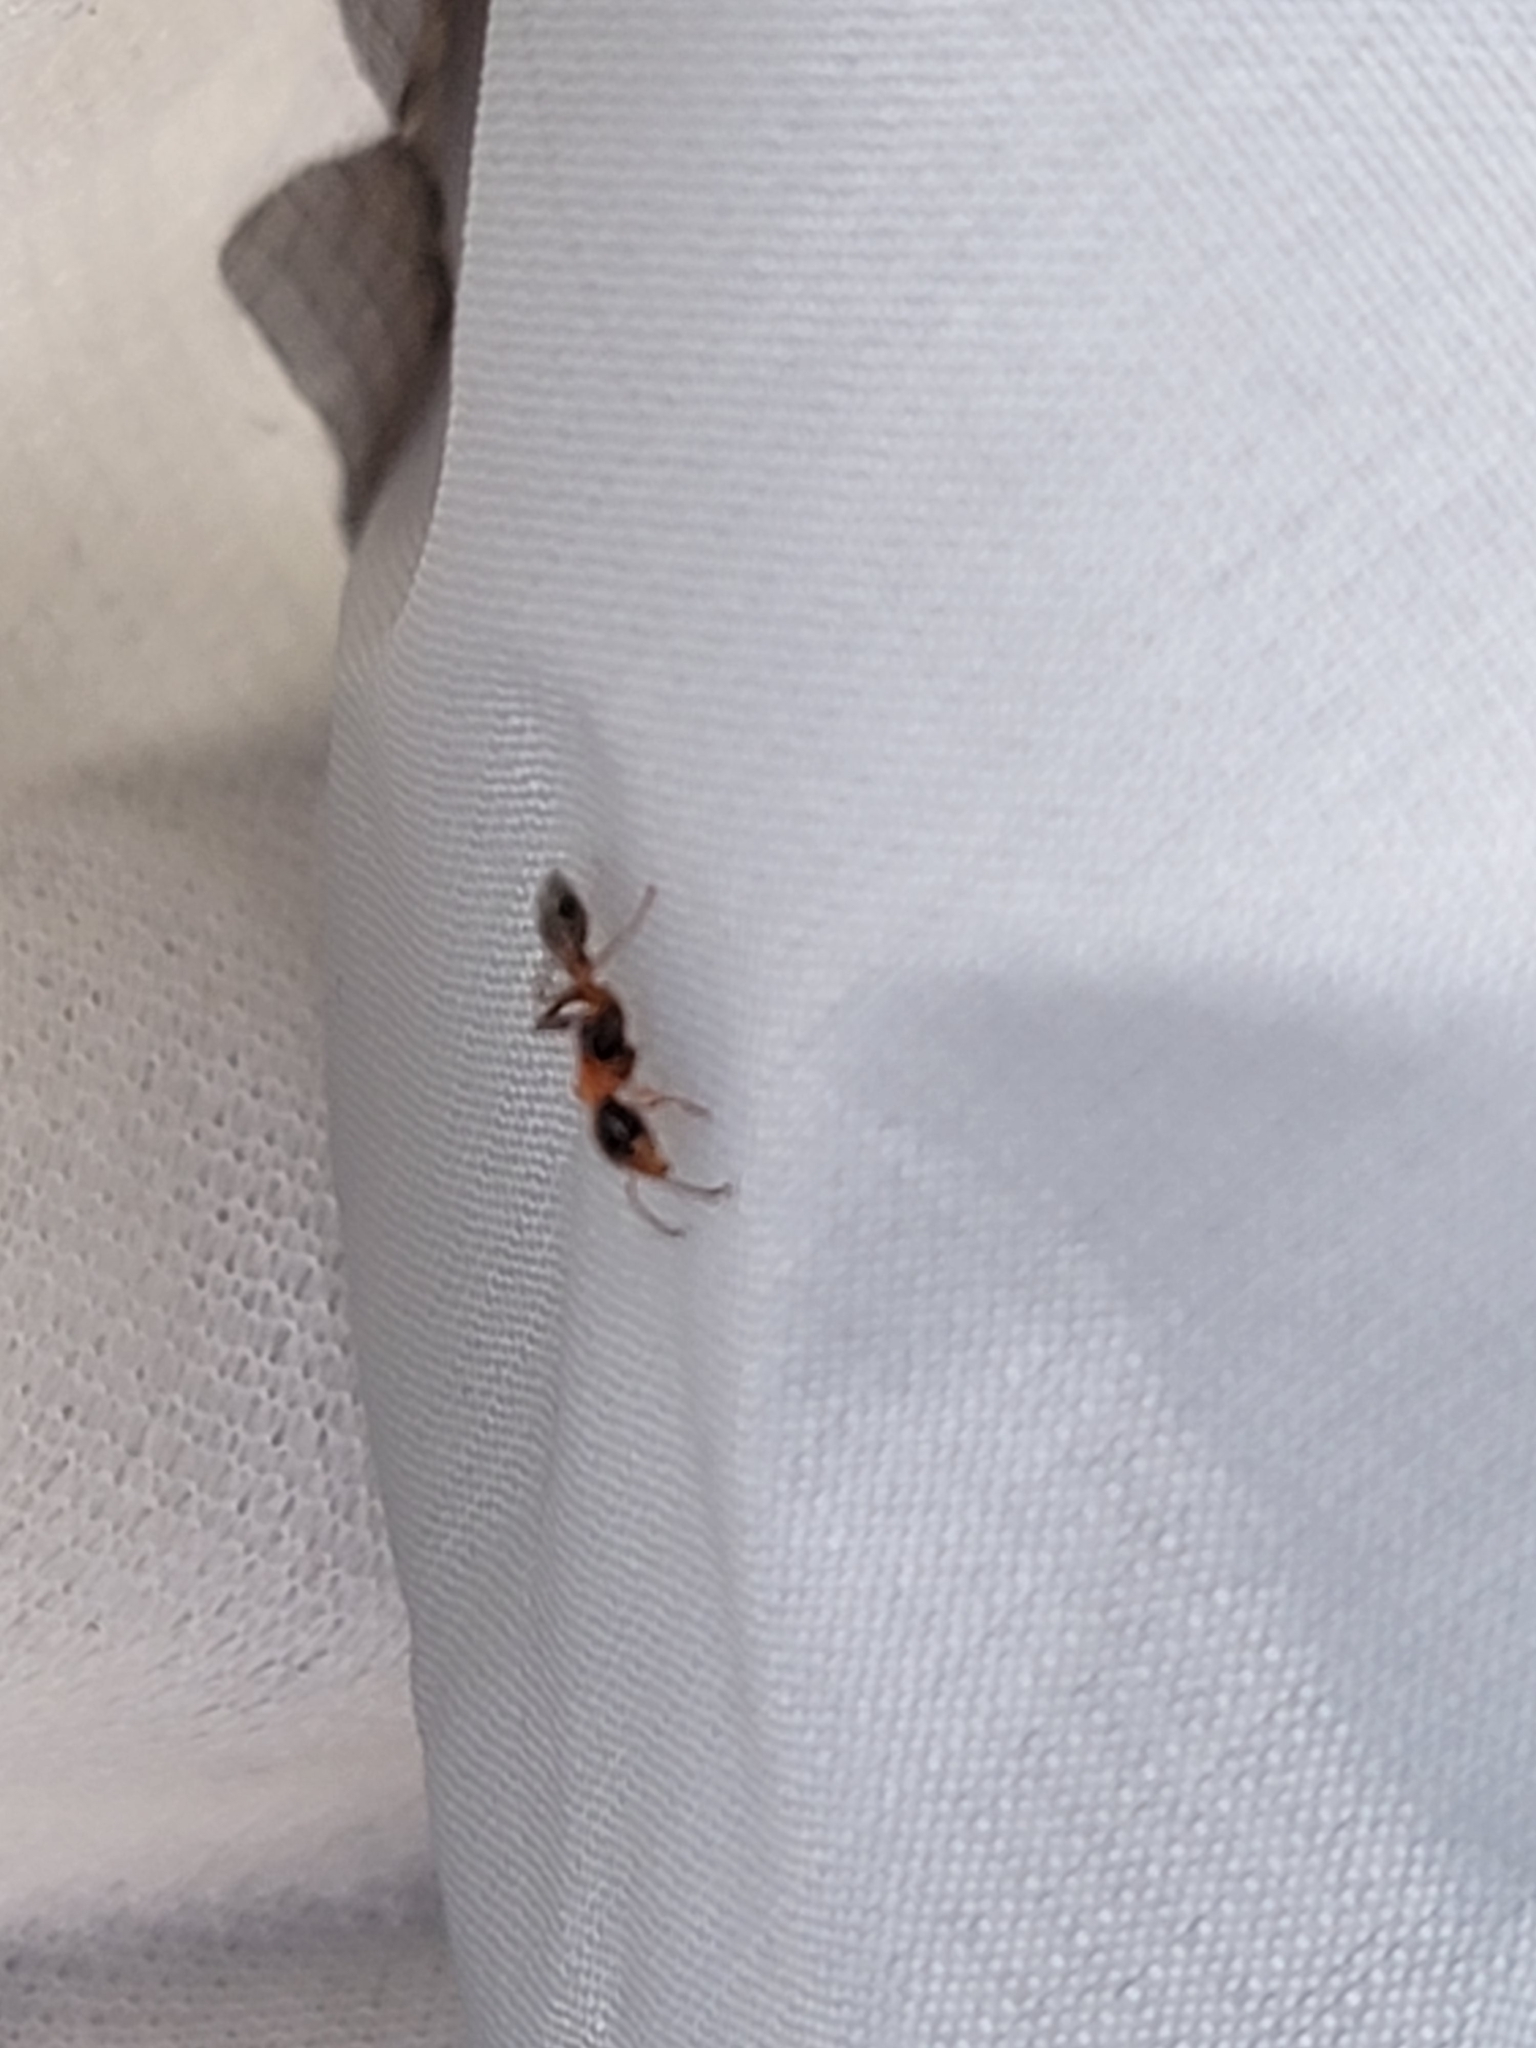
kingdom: Animalia
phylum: Arthropoda
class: Insecta
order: Hymenoptera
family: Formicidae
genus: Pseudomyrmex
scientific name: Pseudomyrmex gracilis
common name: Graceful twig ant
